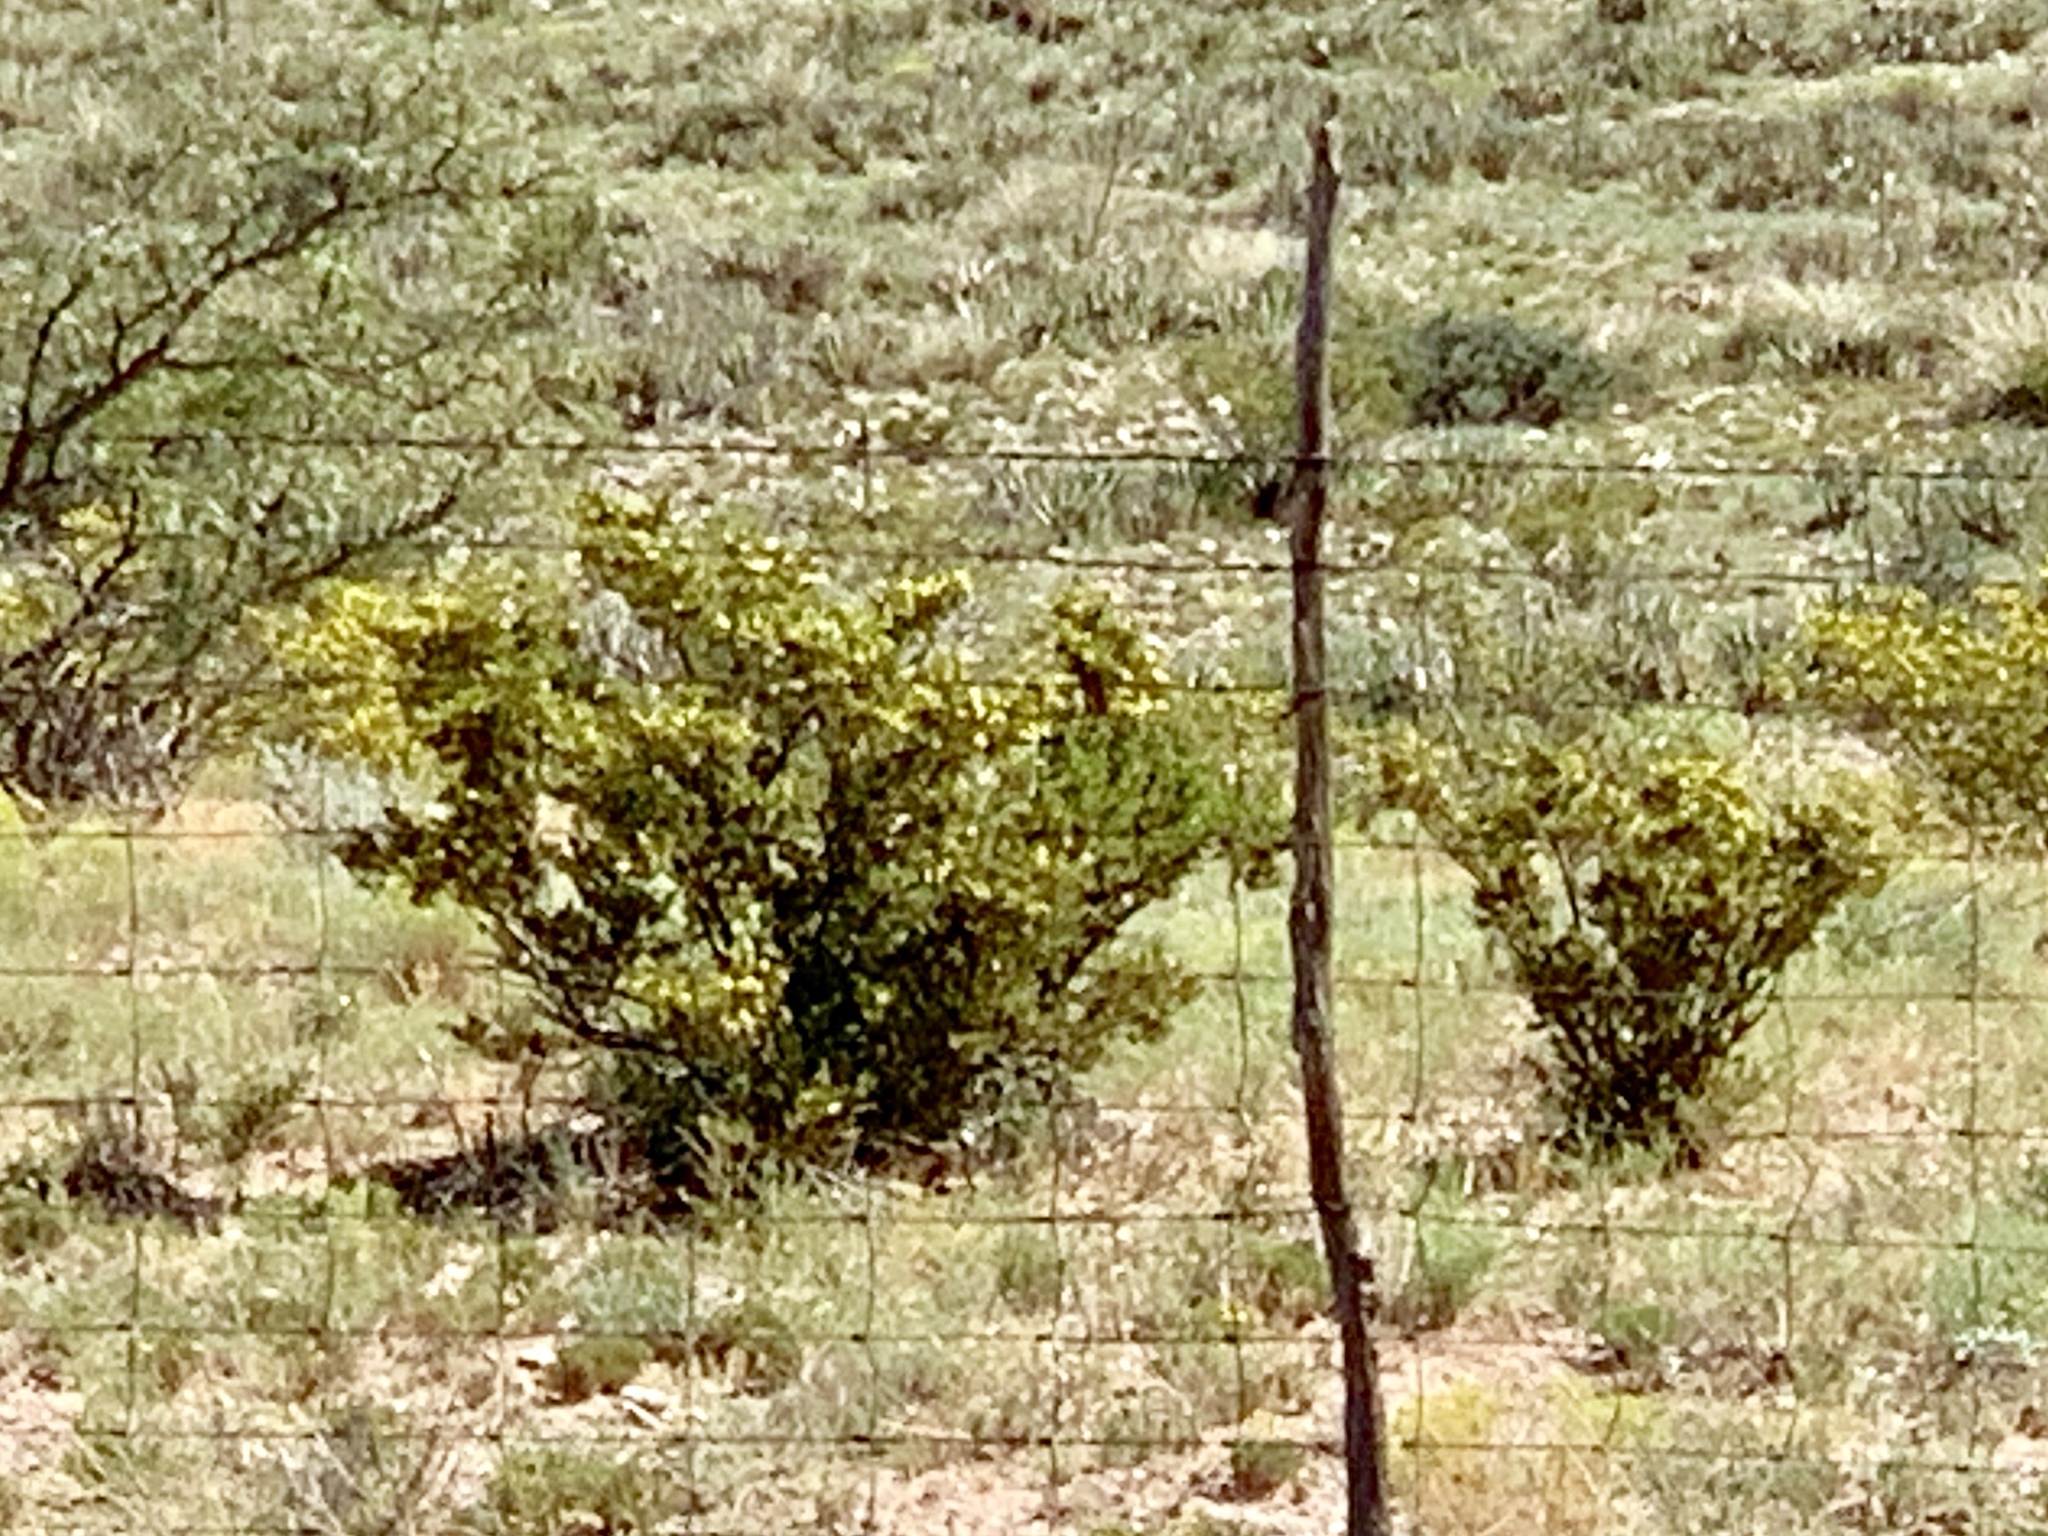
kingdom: Plantae
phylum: Tracheophyta
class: Magnoliopsida
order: Zygophyllales
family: Zygophyllaceae
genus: Larrea
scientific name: Larrea tridentata
